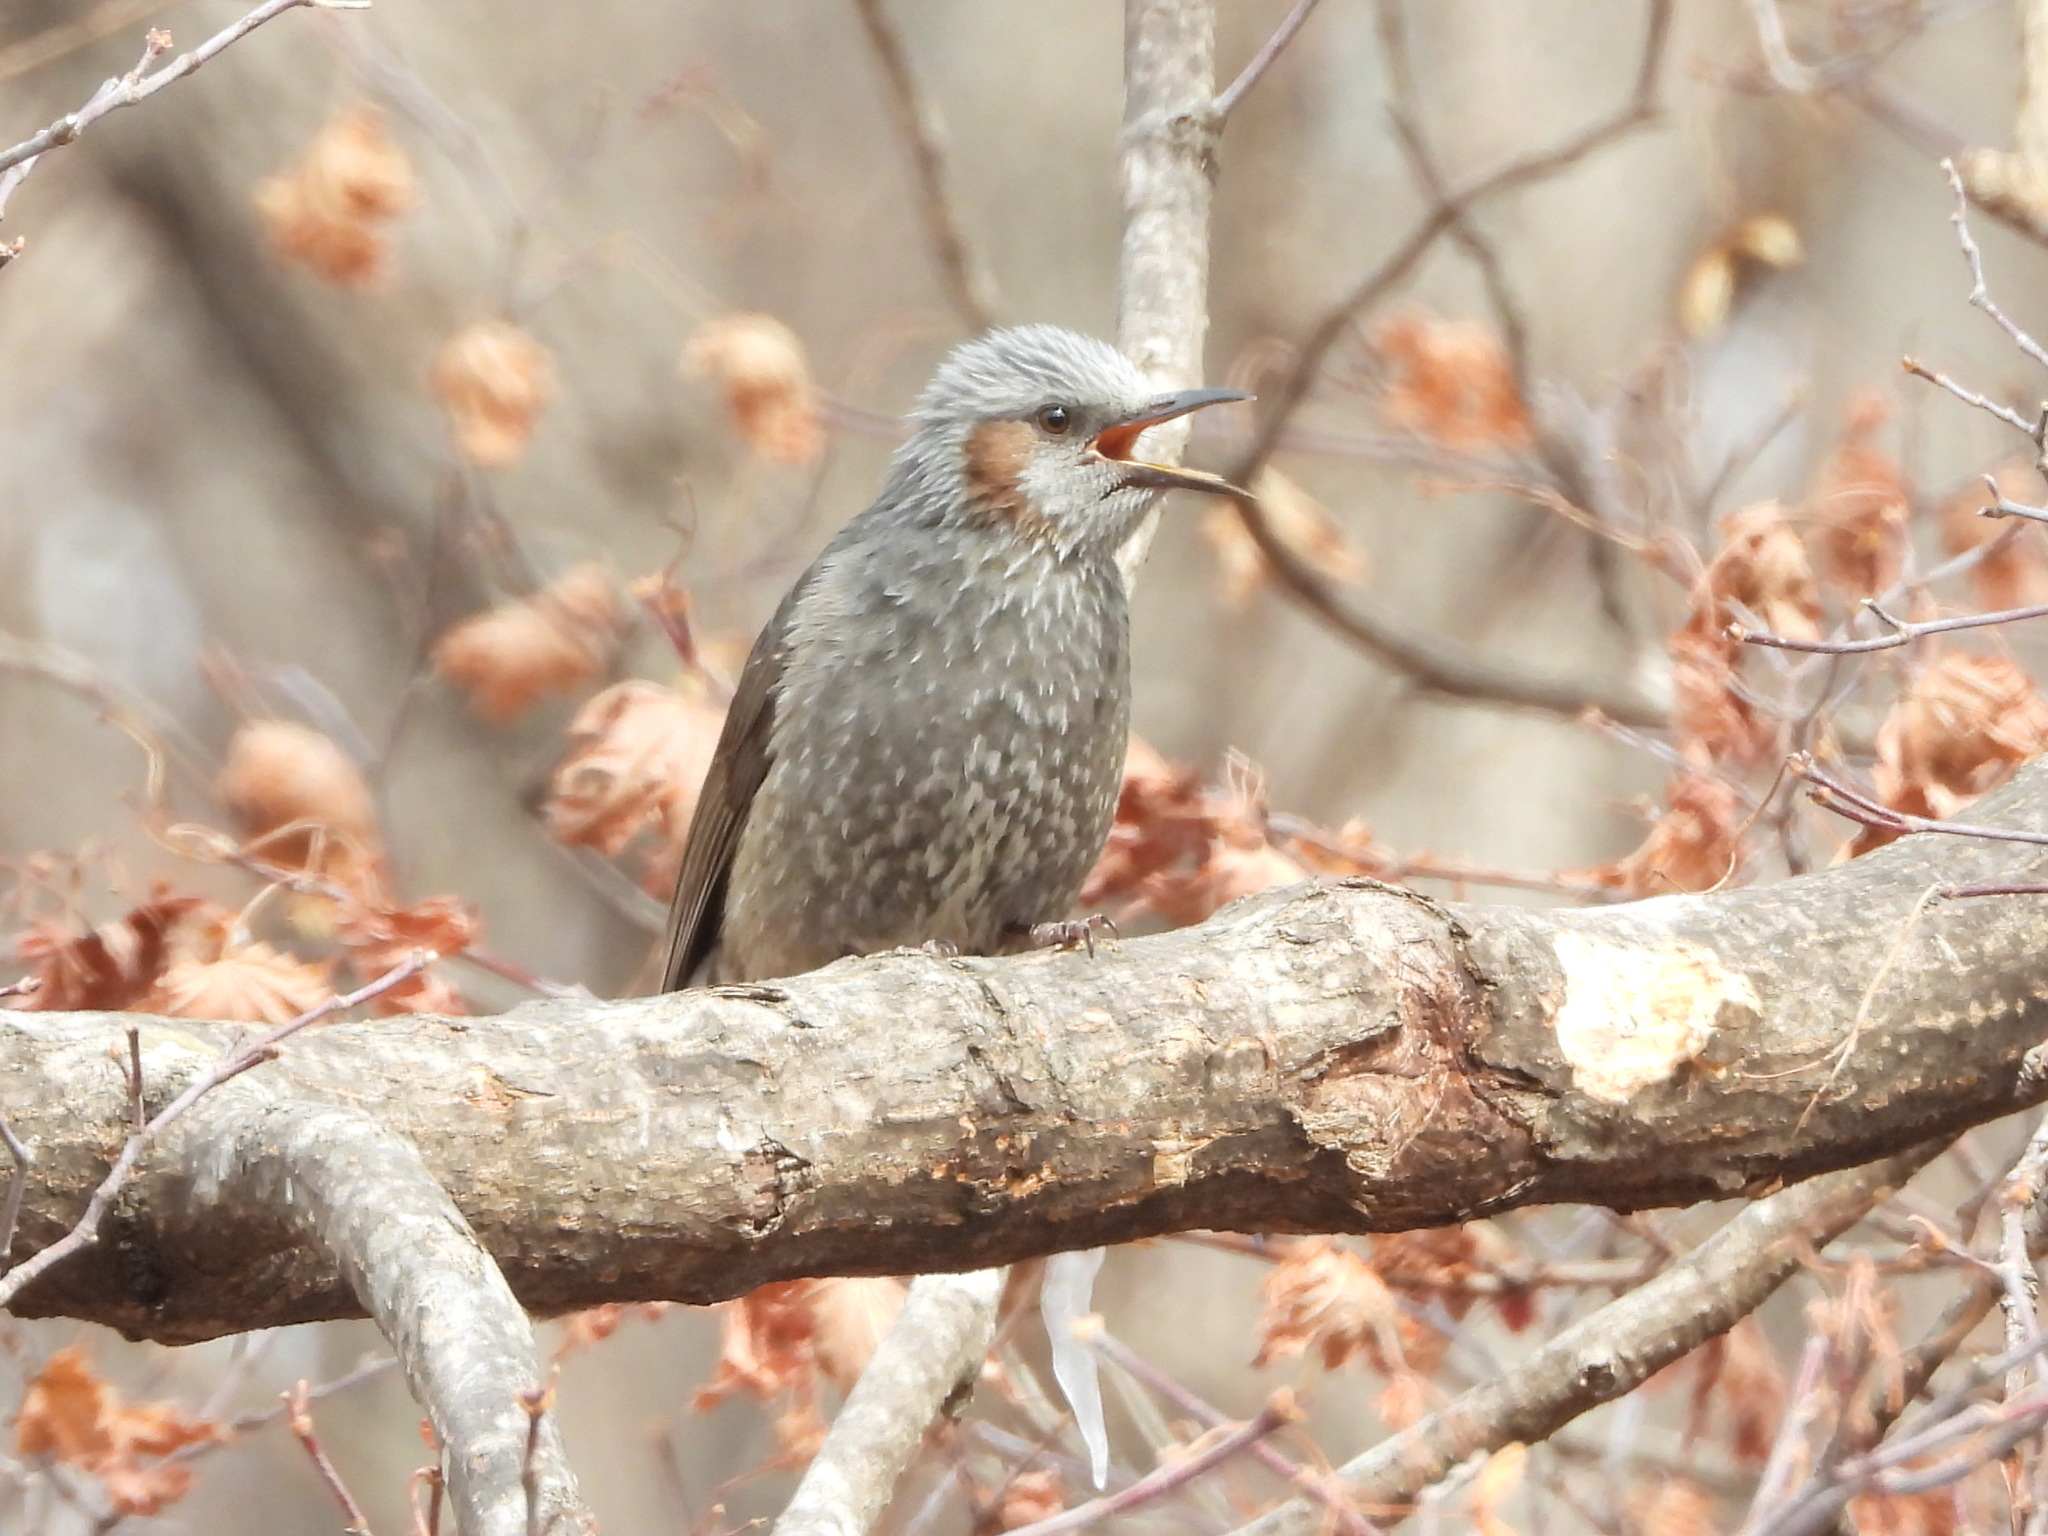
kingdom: Animalia
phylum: Chordata
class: Aves
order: Passeriformes
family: Pycnonotidae
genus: Hypsipetes
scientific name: Hypsipetes amaurotis
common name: Brown-eared bulbul
